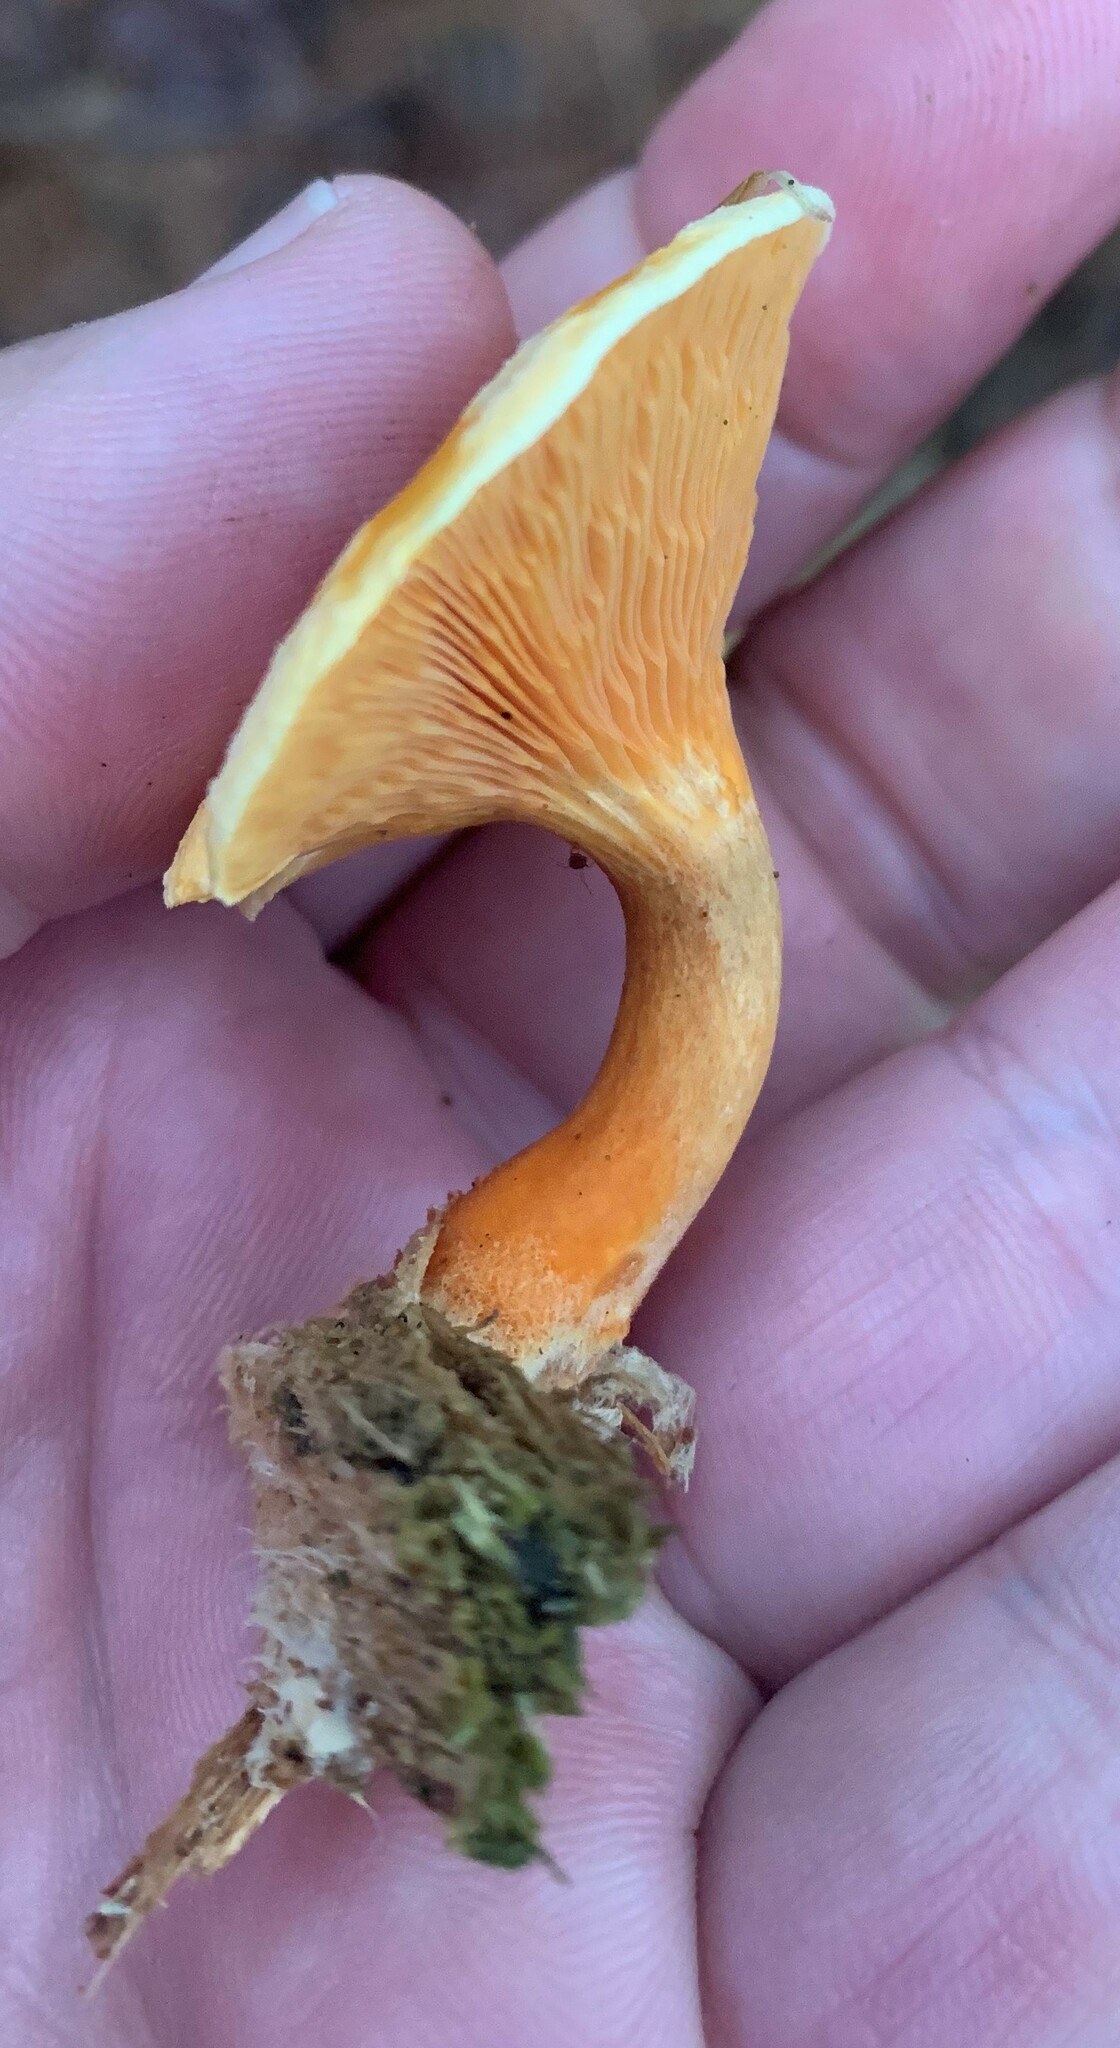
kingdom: Fungi
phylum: Basidiomycota
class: Agaricomycetes
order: Boletales
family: Hygrophoropsidaceae
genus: Hygrophoropsis
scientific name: Hygrophoropsis aurantiaca
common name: False chanterelle
